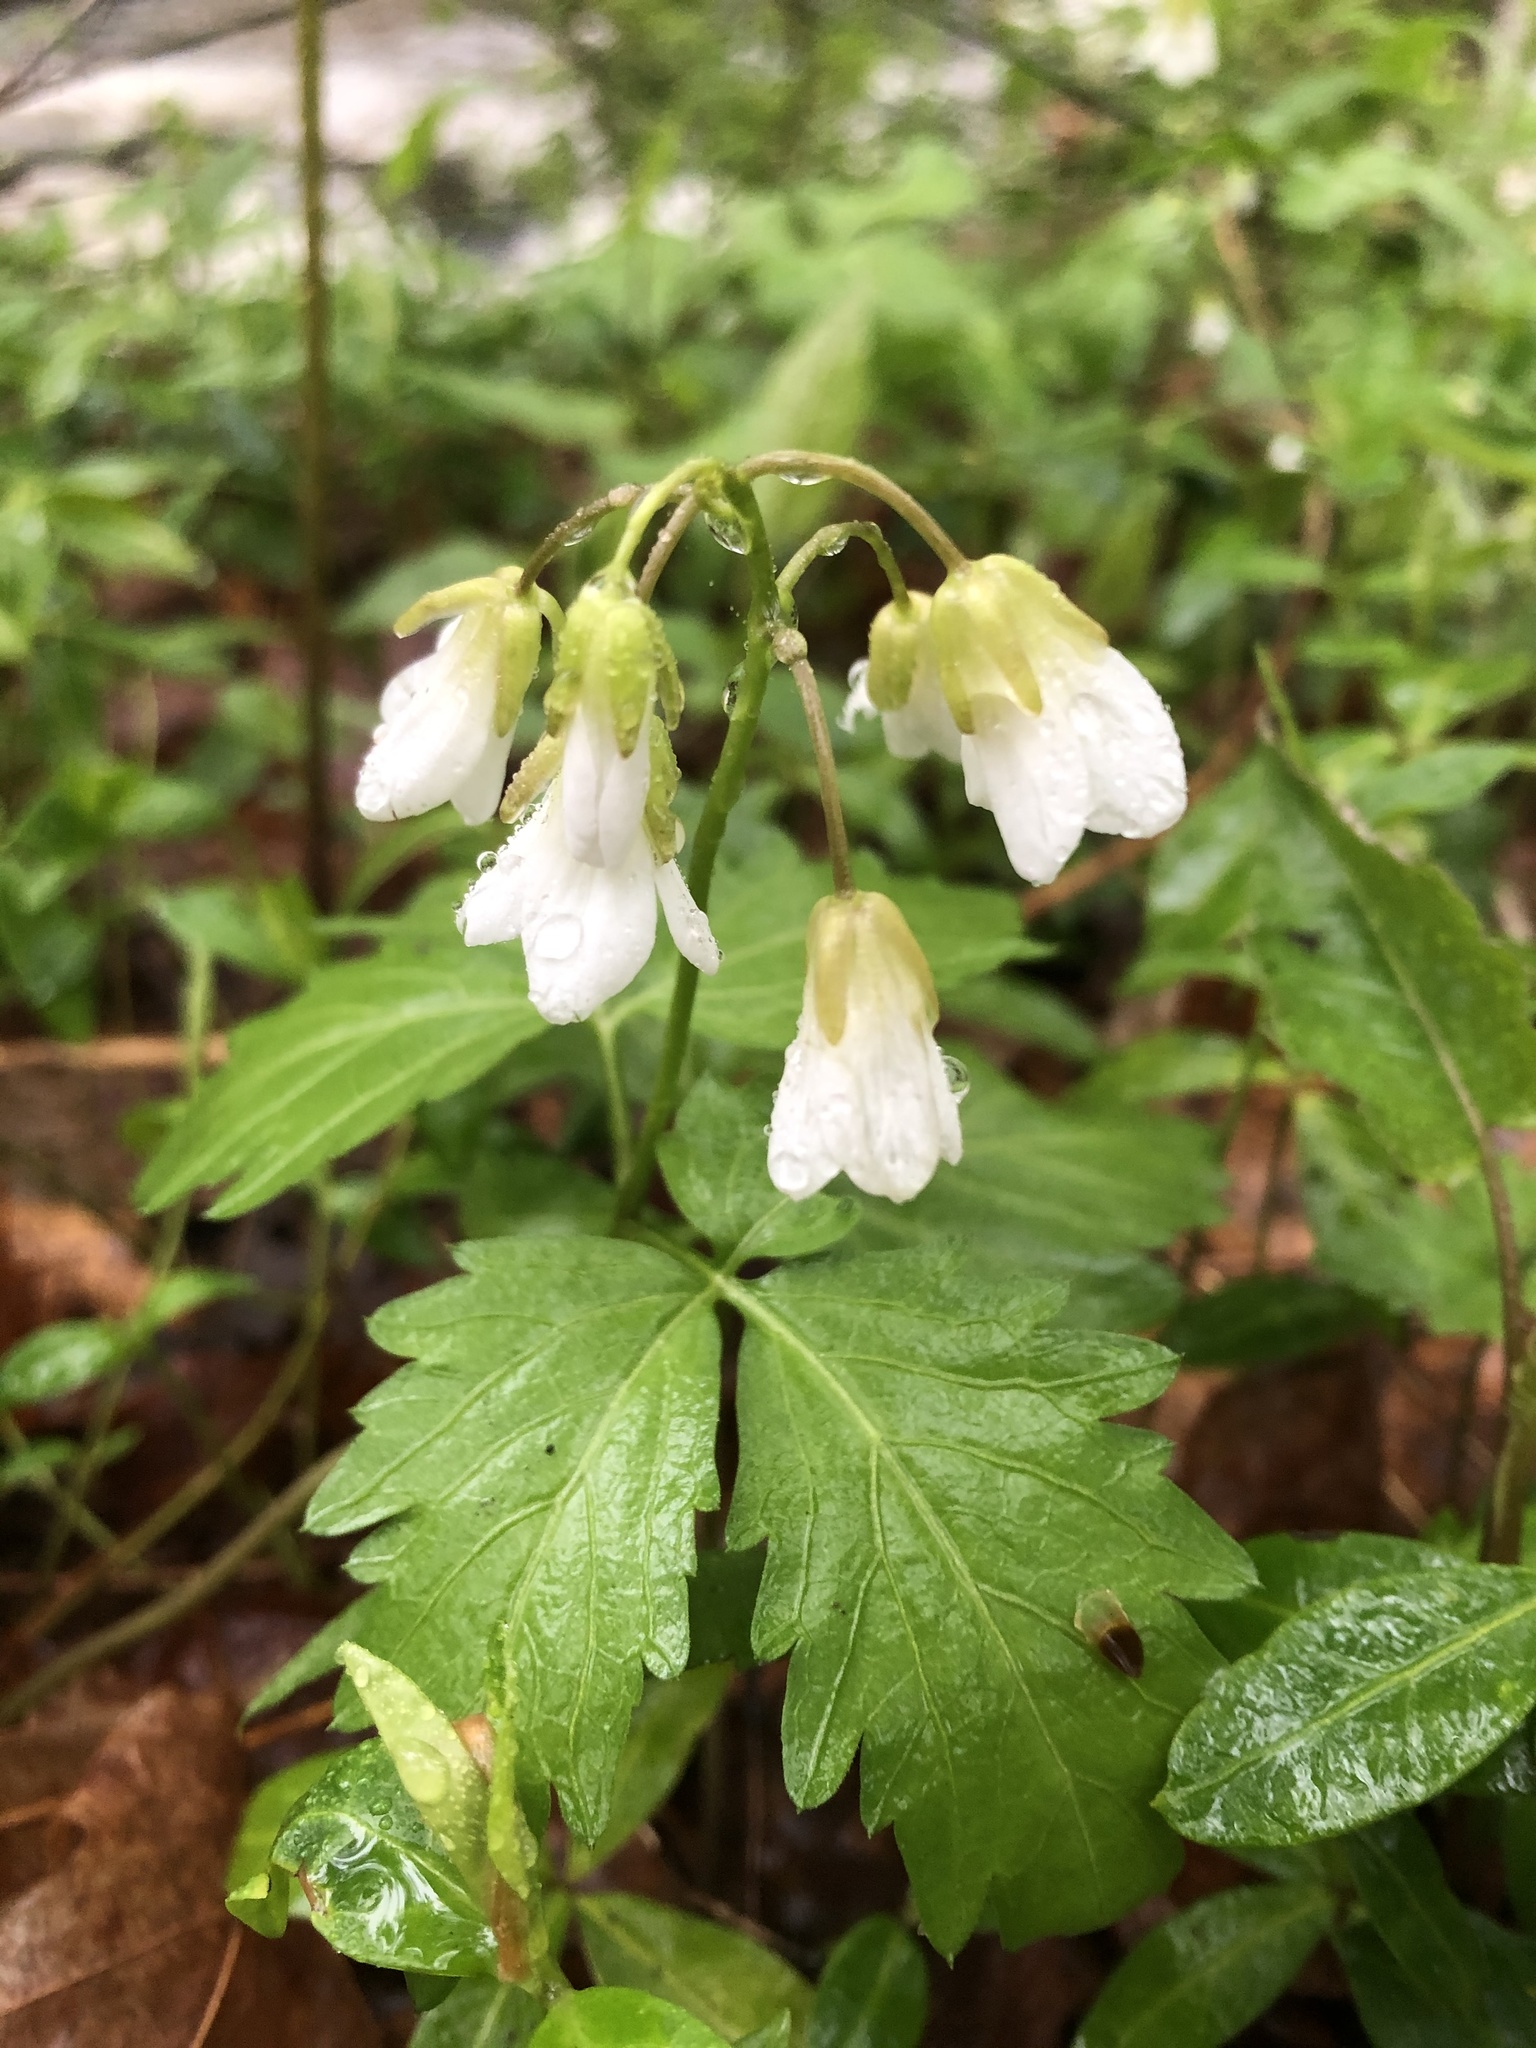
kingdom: Plantae
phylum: Tracheophyta
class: Magnoliopsida
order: Brassicales
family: Brassicaceae
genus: Cardamine
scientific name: Cardamine diphylla
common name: Broad-leaved toothwort
